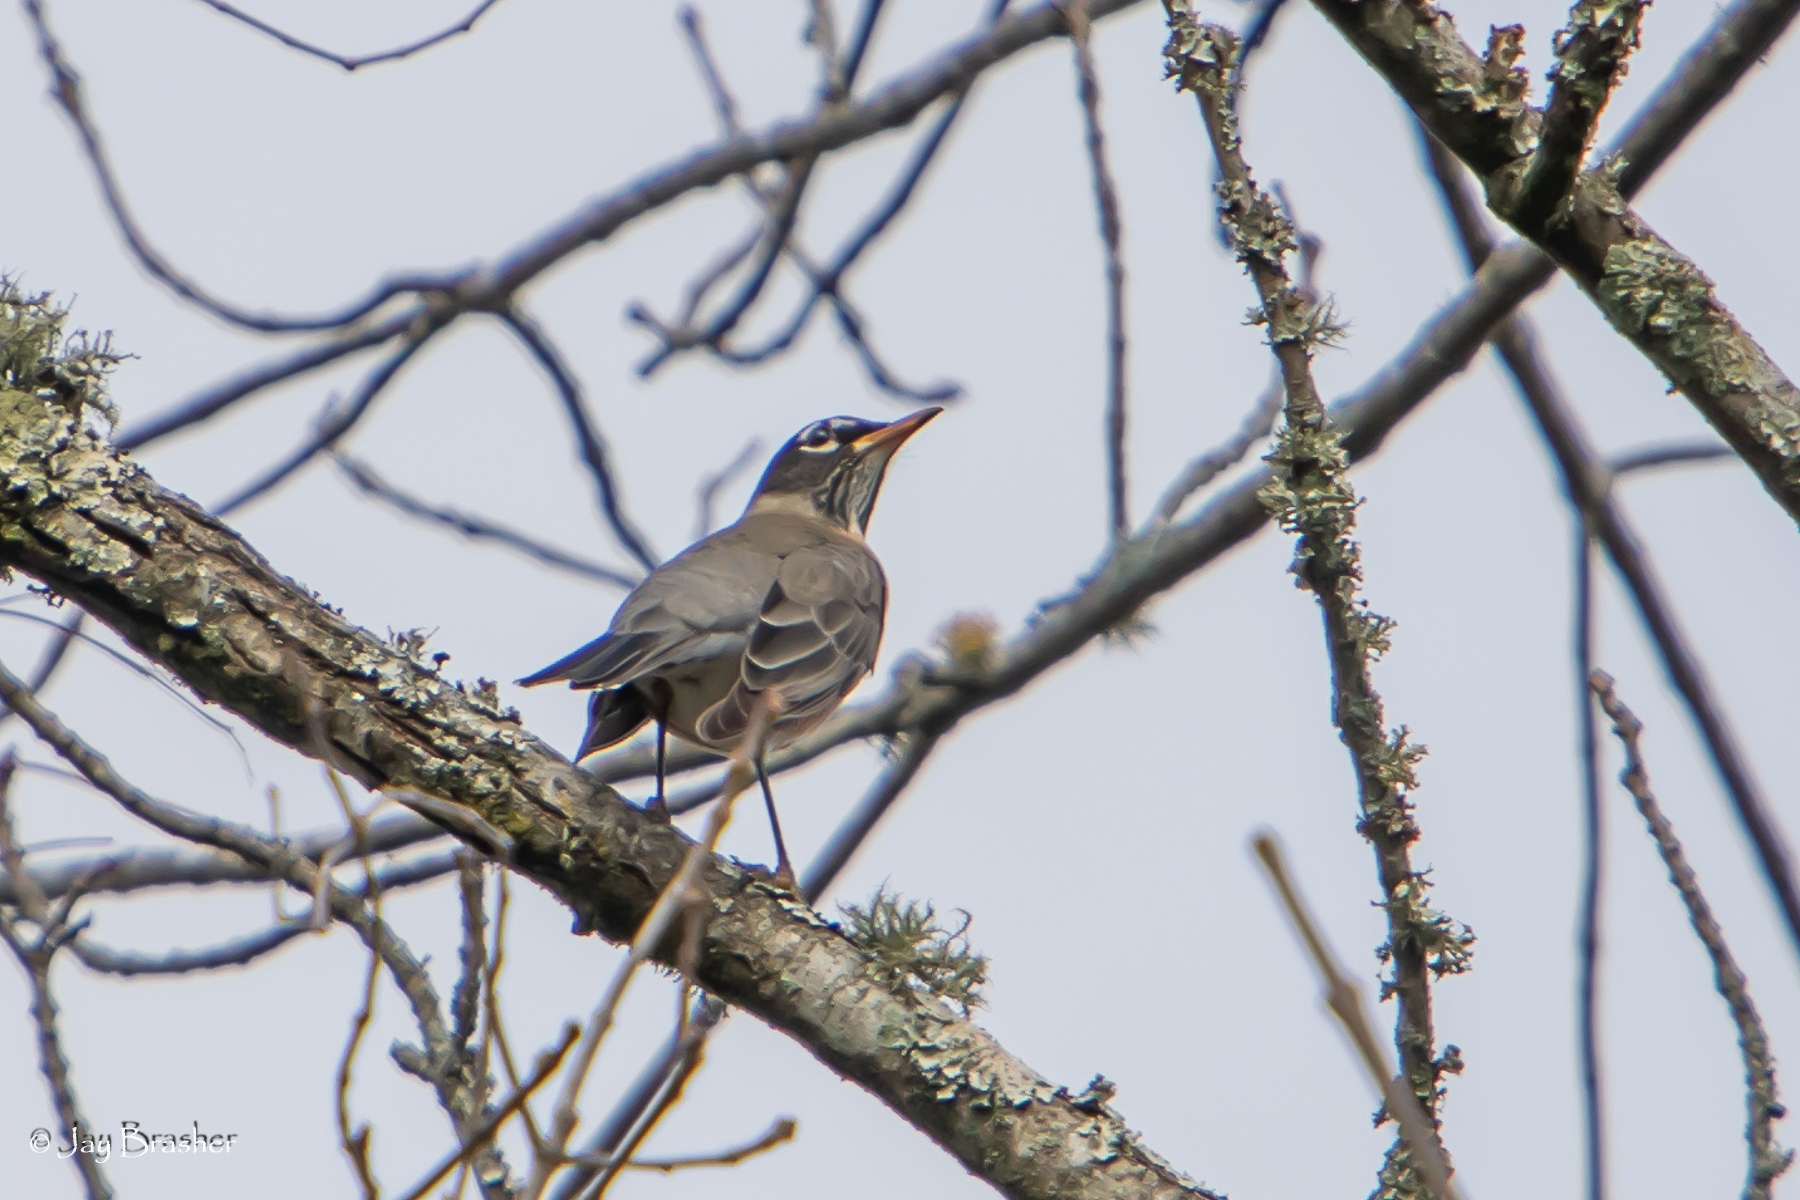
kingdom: Animalia
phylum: Chordata
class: Aves
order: Passeriformes
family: Turdidae
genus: Turdus
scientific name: Turdus migratorius
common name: American robin
